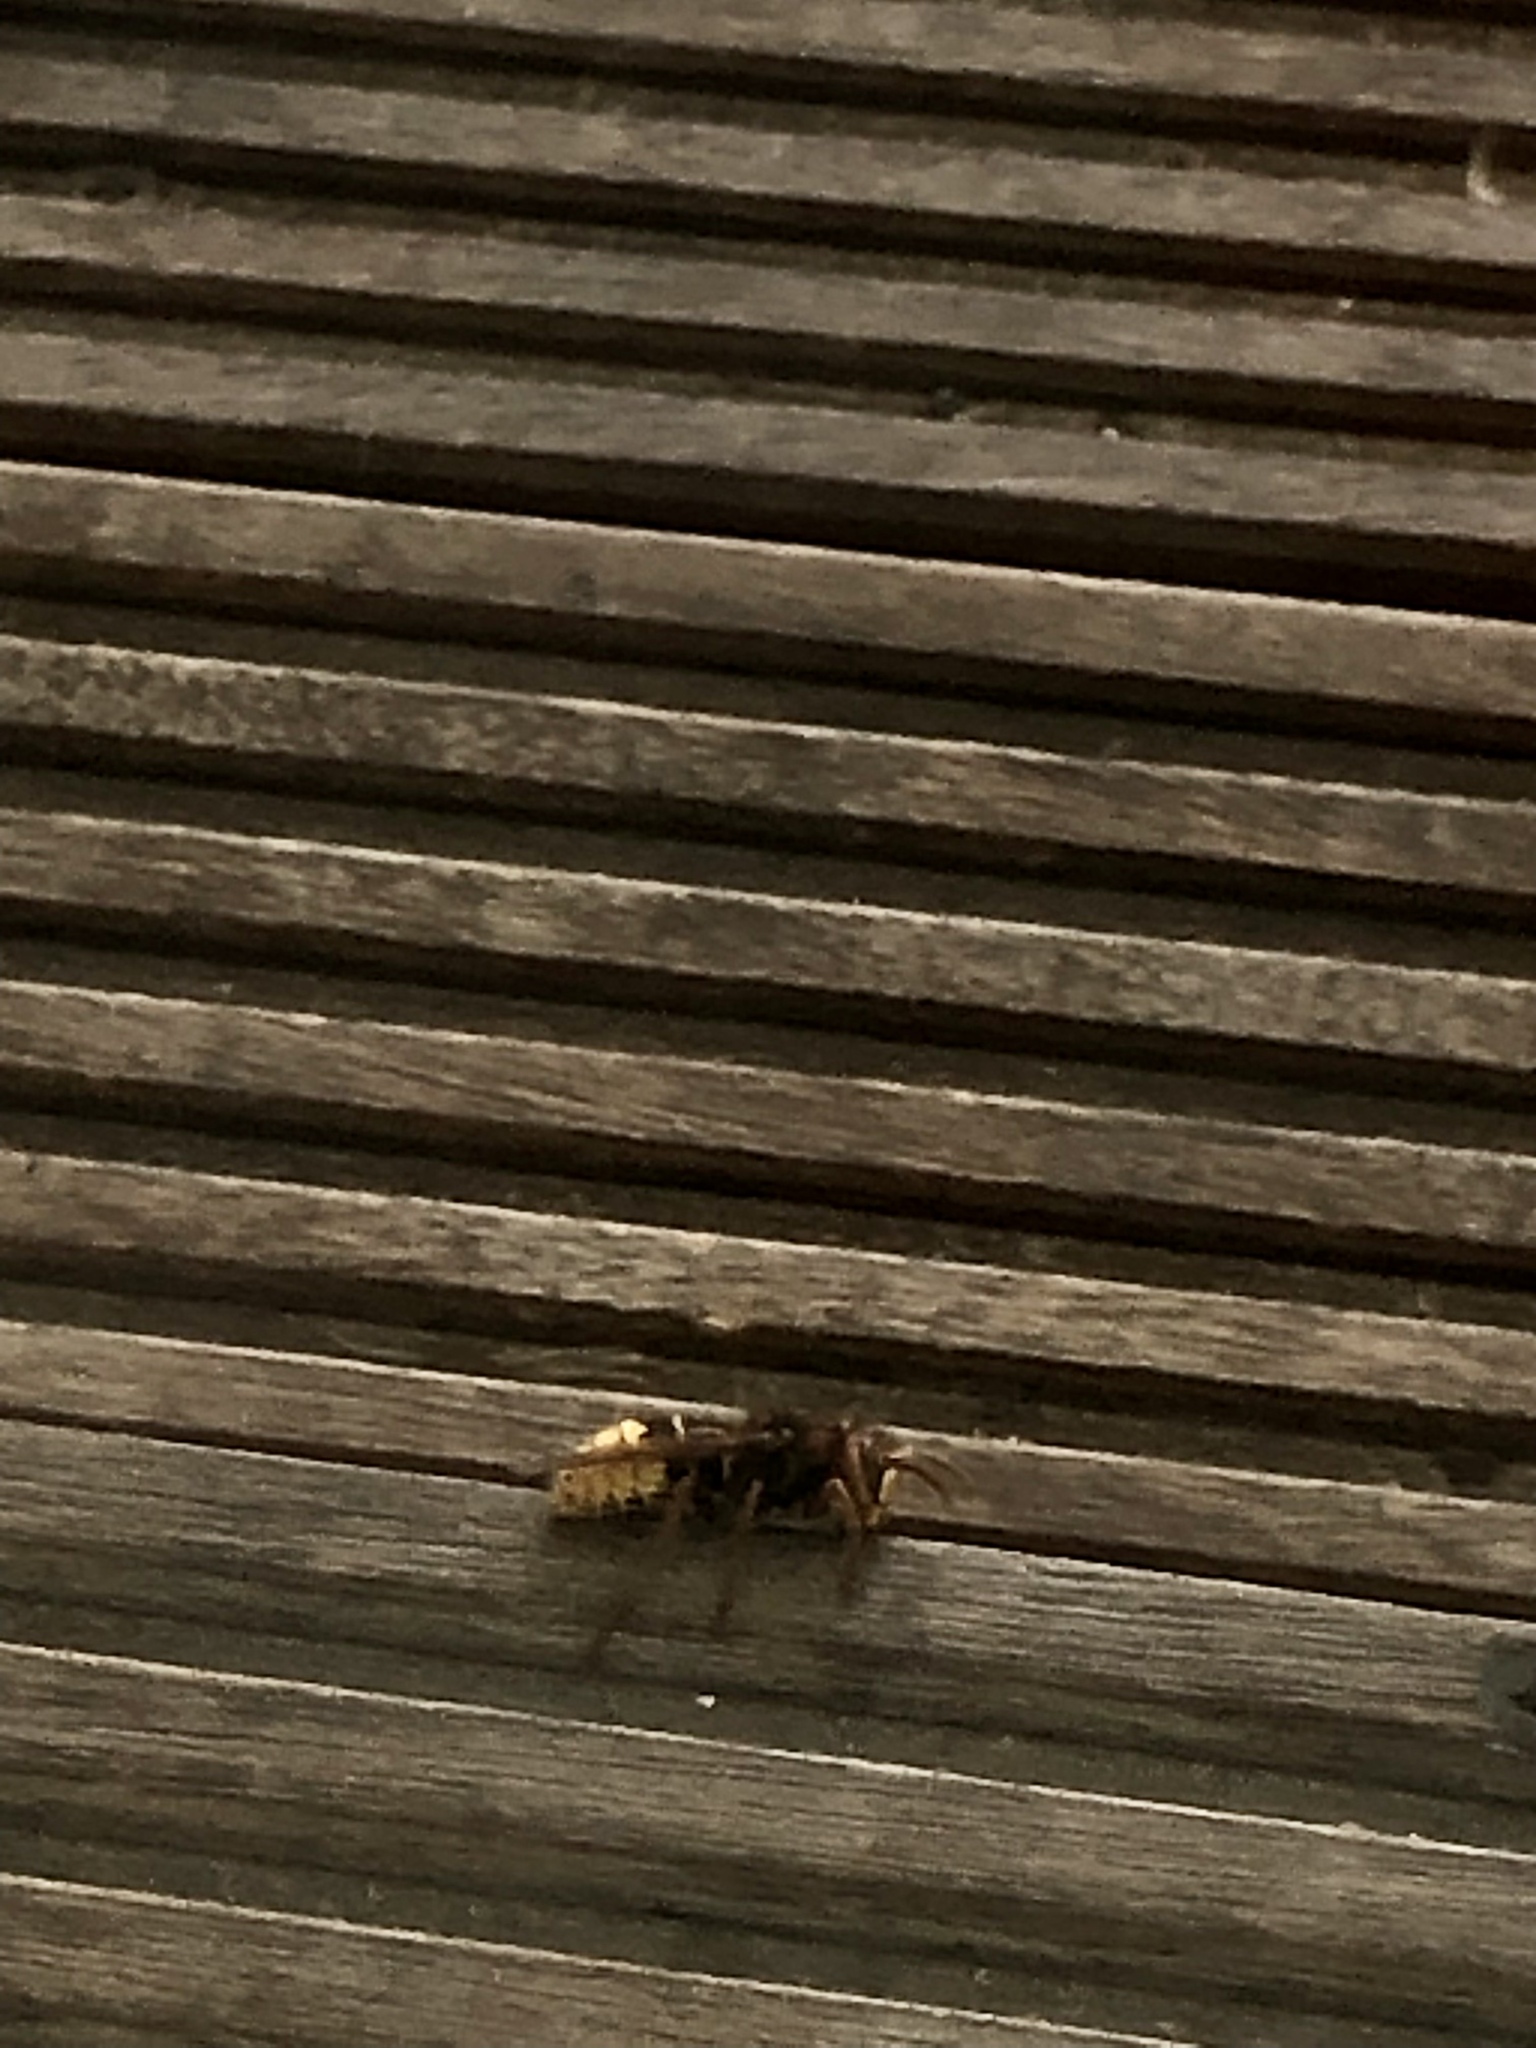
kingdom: Animalia
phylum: Arthropoda
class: Insecta
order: Hymenoptera
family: Vespidae
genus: Vespa
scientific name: Vespa crabro
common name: Hornet
